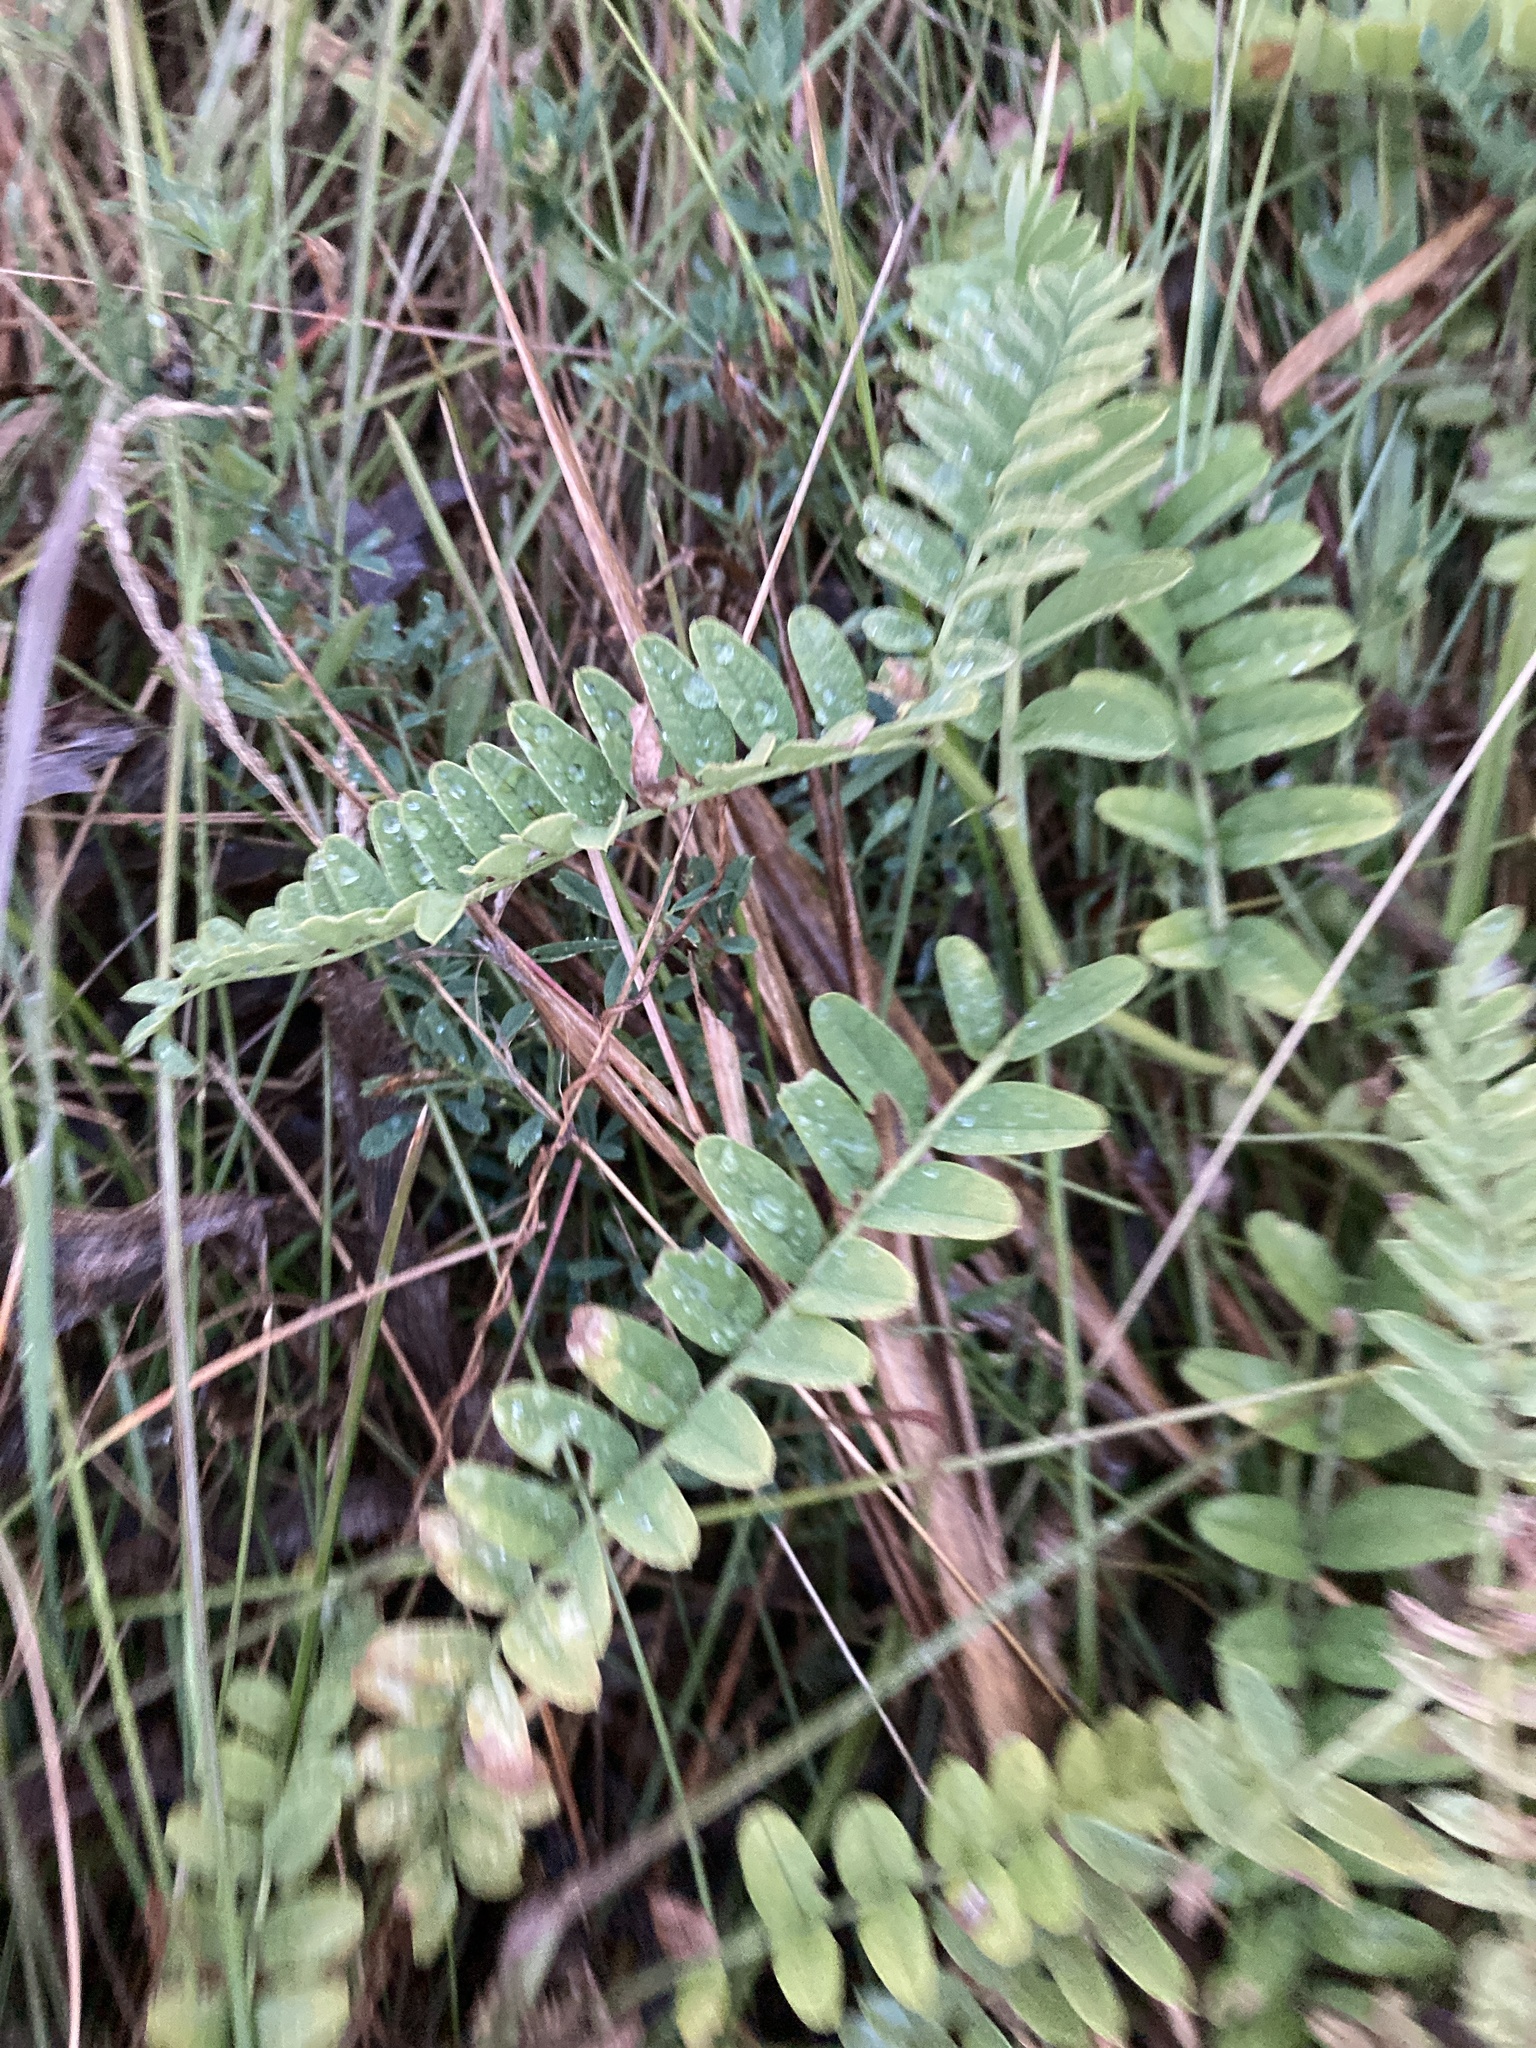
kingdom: Plantae
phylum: Tracheophyta
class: Magnoliopsida
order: Fabales
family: Fabaceae
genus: Astragalus
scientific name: Astragalus cicer
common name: Chick-pea milk-vetch
